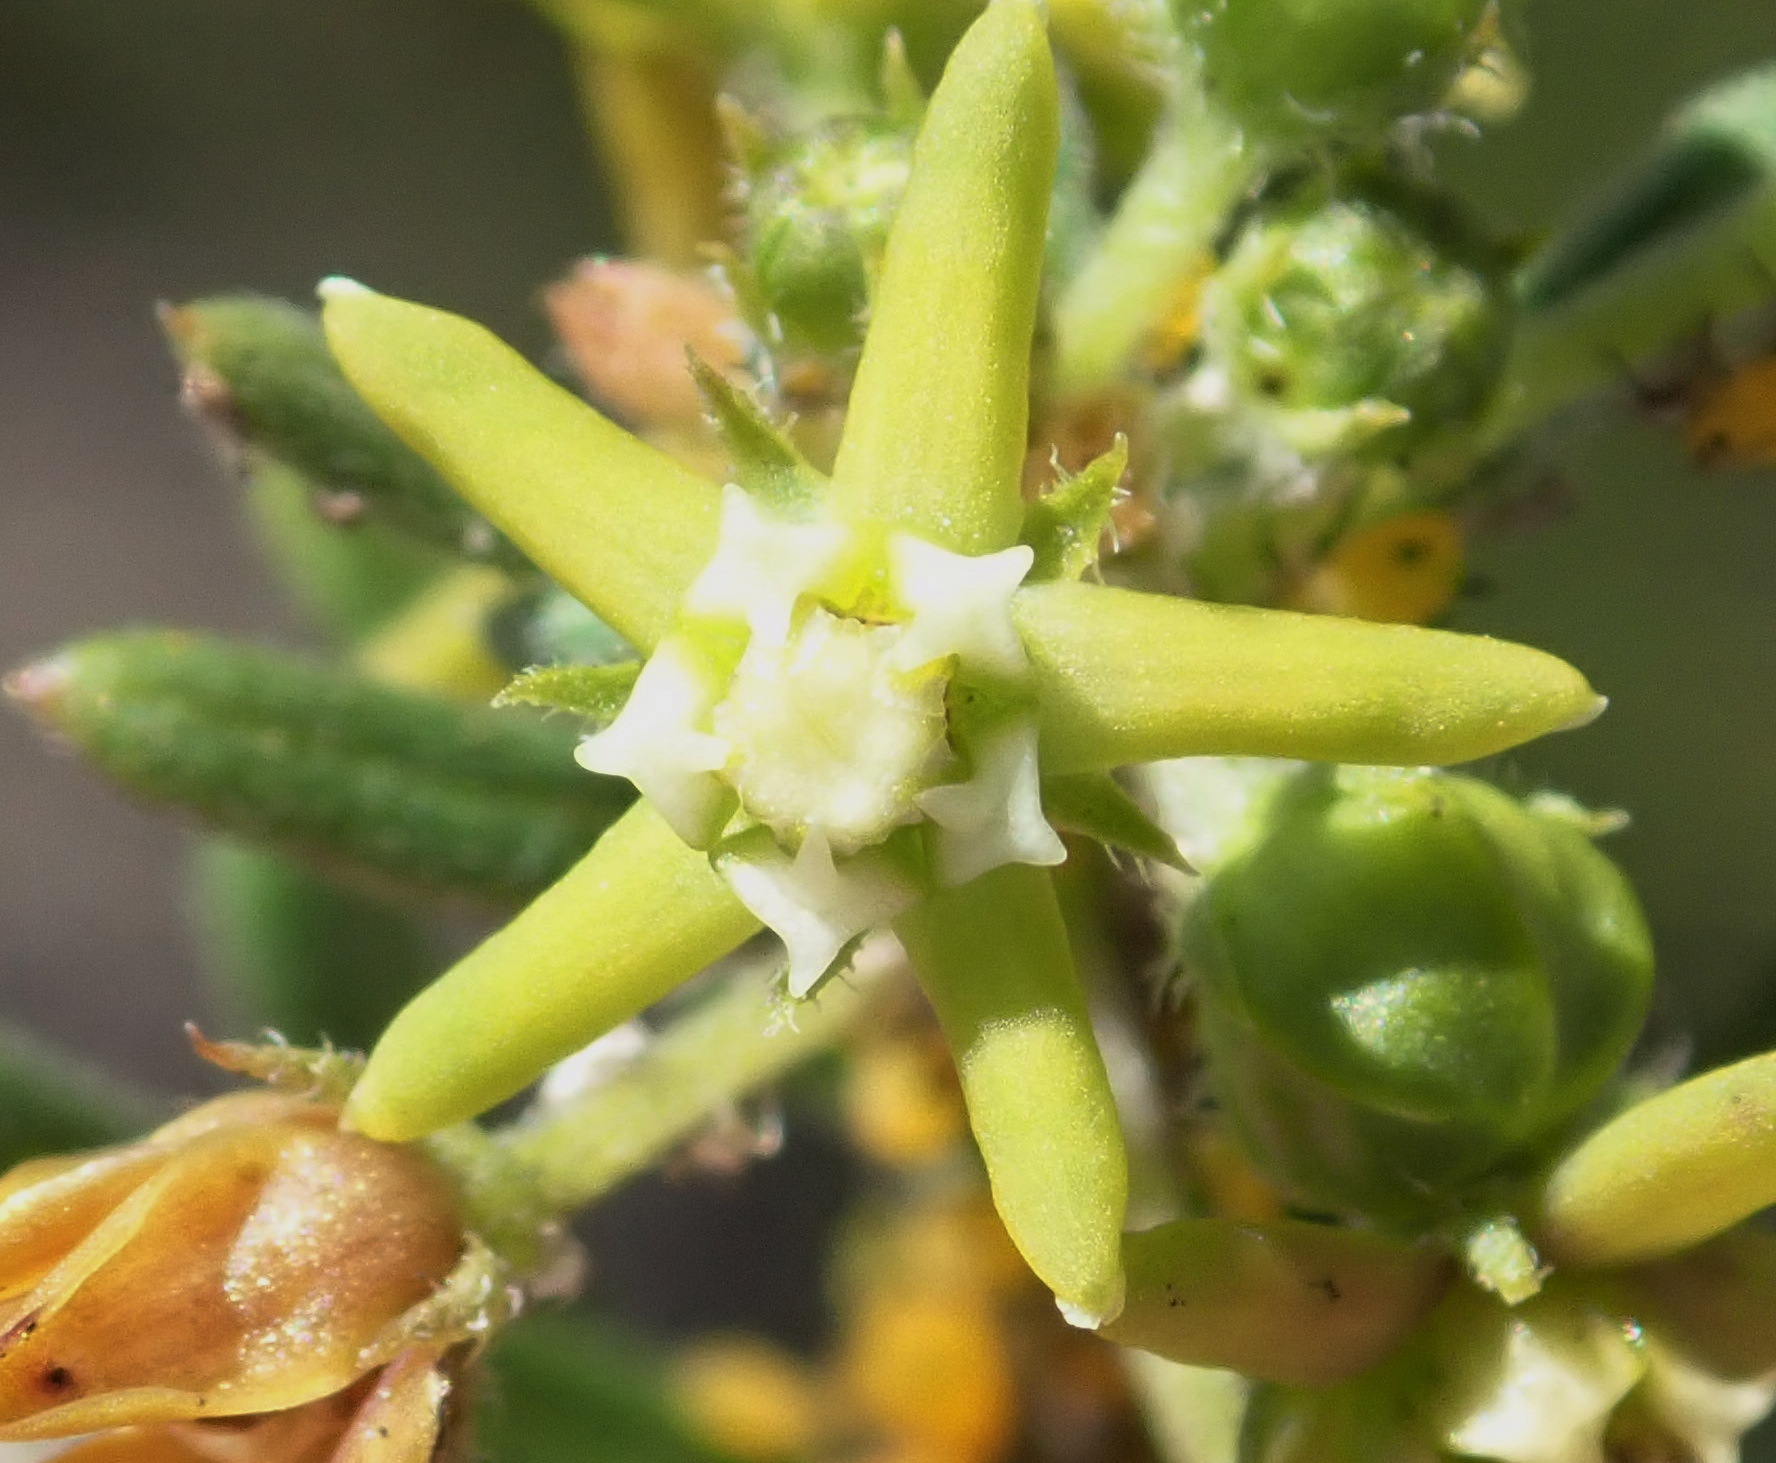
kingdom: Plantae
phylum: Tracheophyta
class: Magnoliopsida
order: Gentianales
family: Apocynaceae
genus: Aspidoglossum
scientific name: Aspidoglossum heterophyllum
